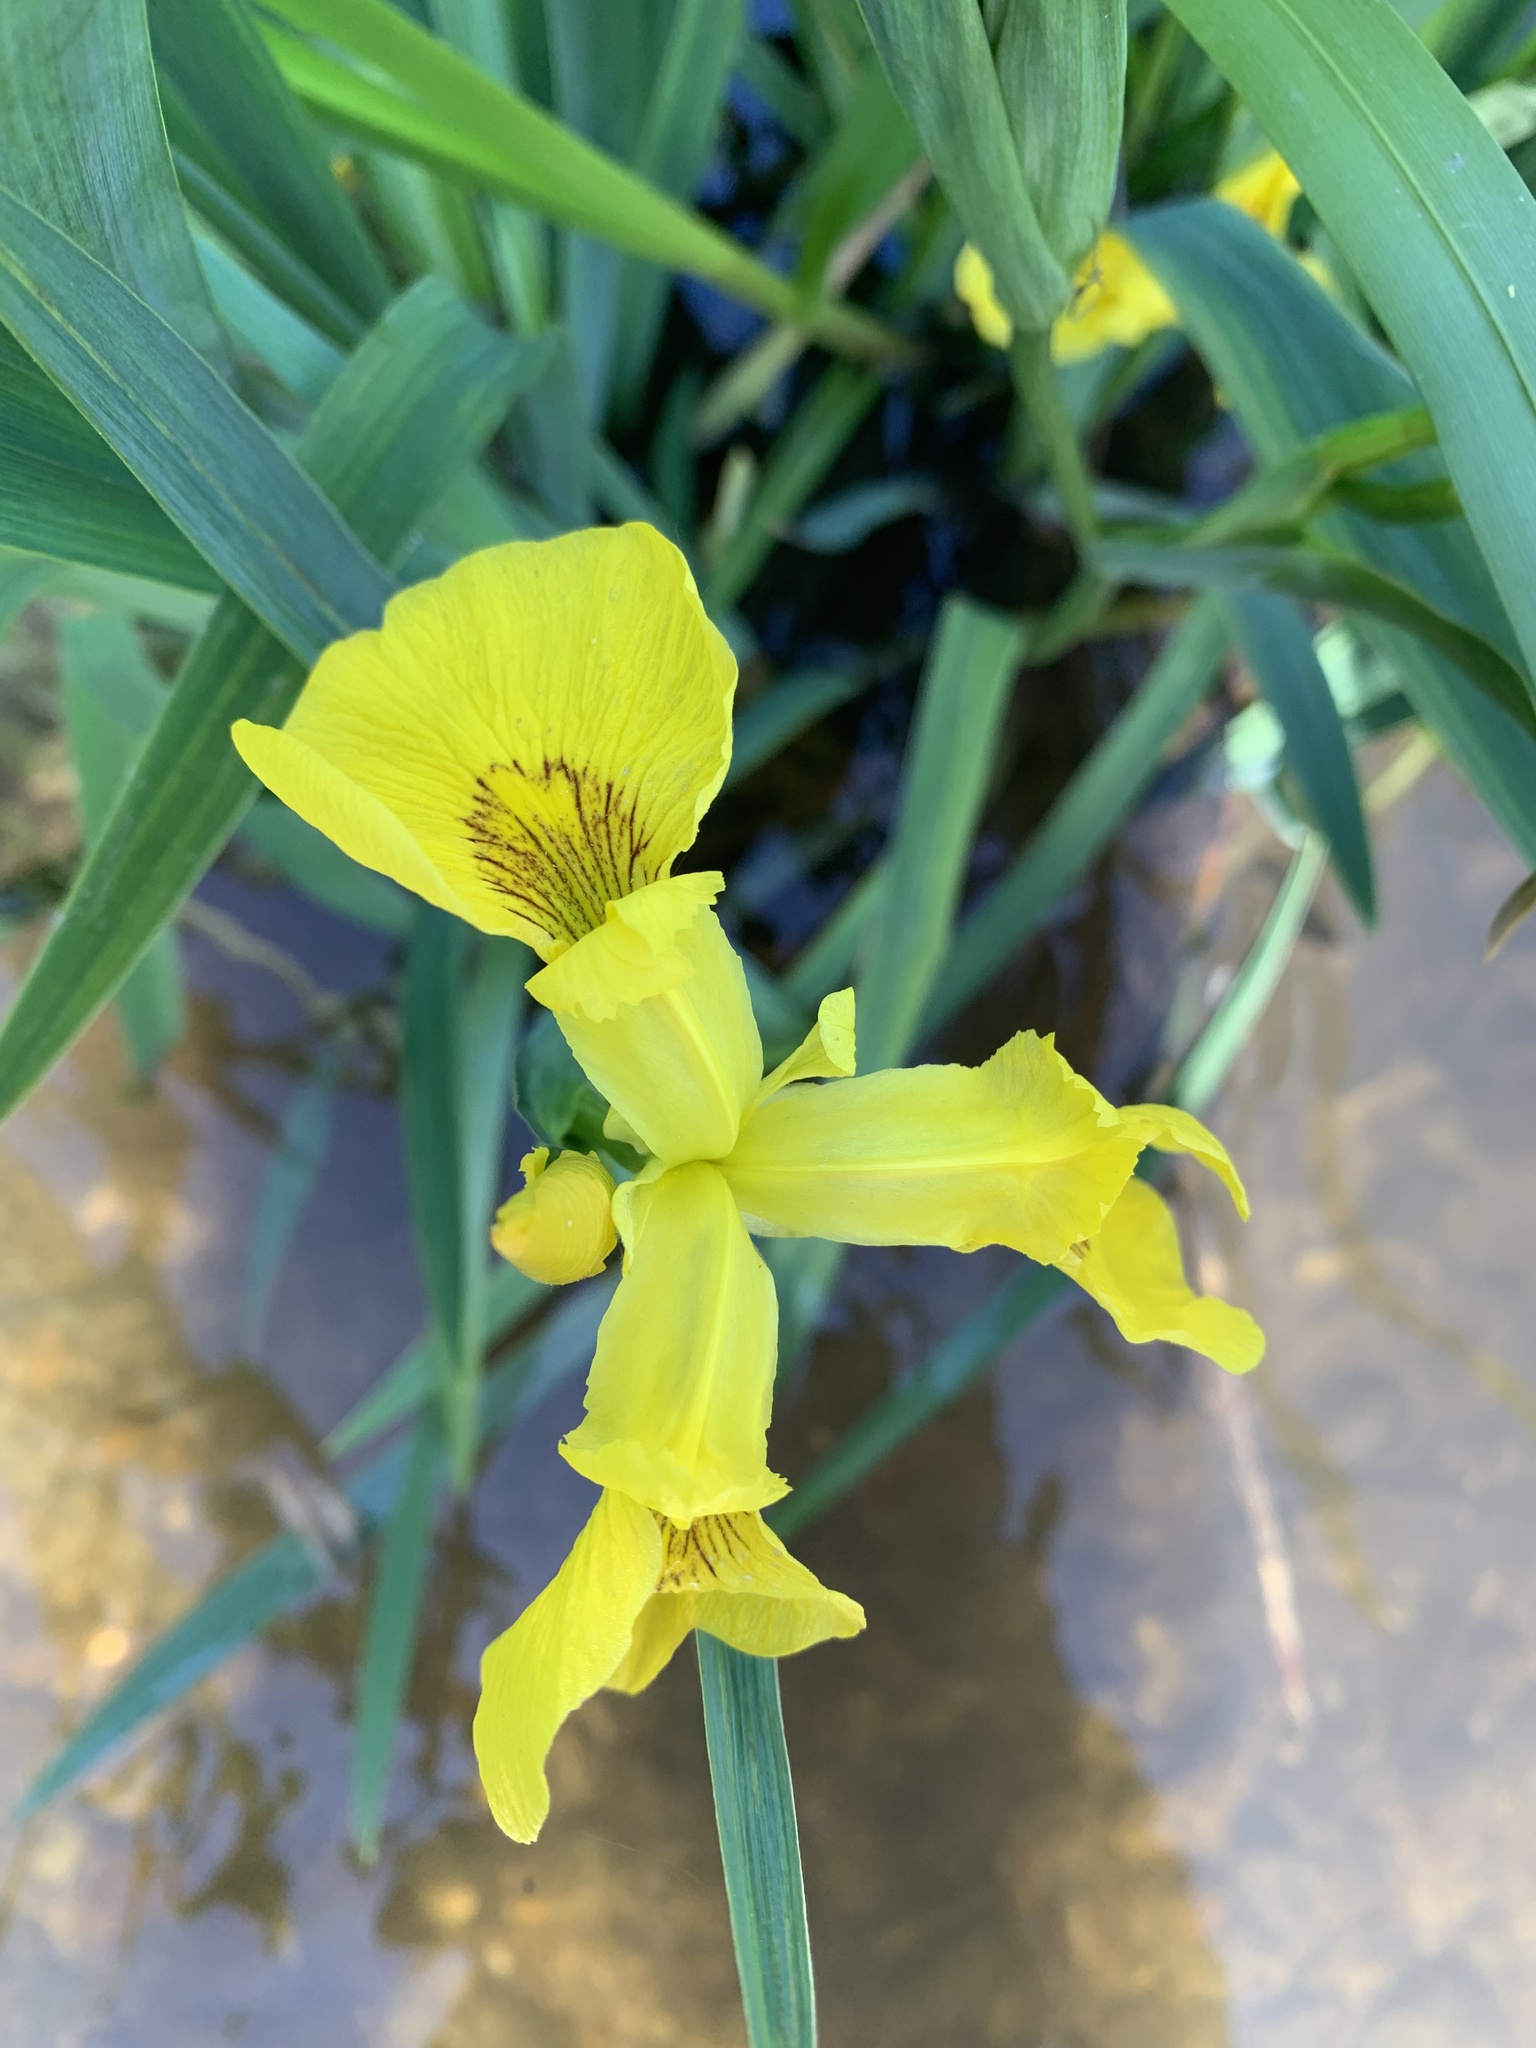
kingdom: Plantae
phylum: Tracheophyta
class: Liliopsida
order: Asparagales
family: Iridaceae
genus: Iris
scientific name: Iris pseudacorus
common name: Yellow flag
